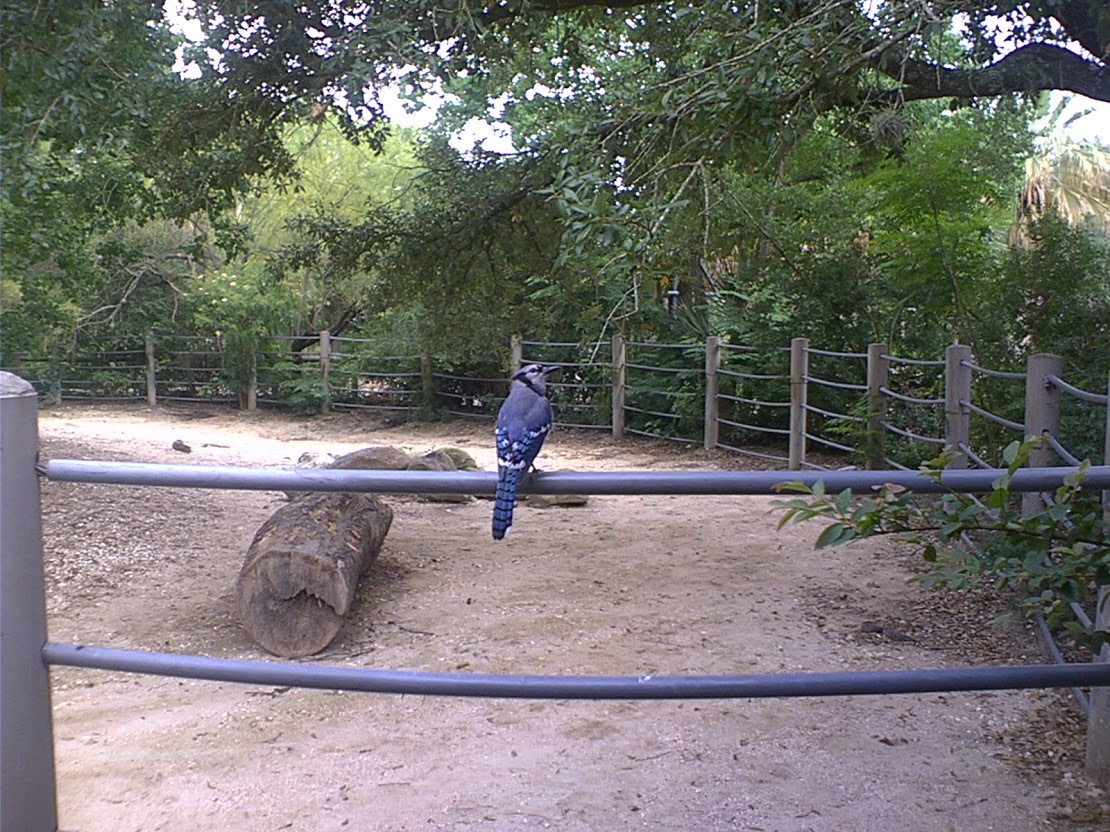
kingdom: Animalia
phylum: Chordata
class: Aves
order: Passeriformes
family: Corvidae
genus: Cyanocitta
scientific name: Cyanocitta cristata
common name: Blue jay
